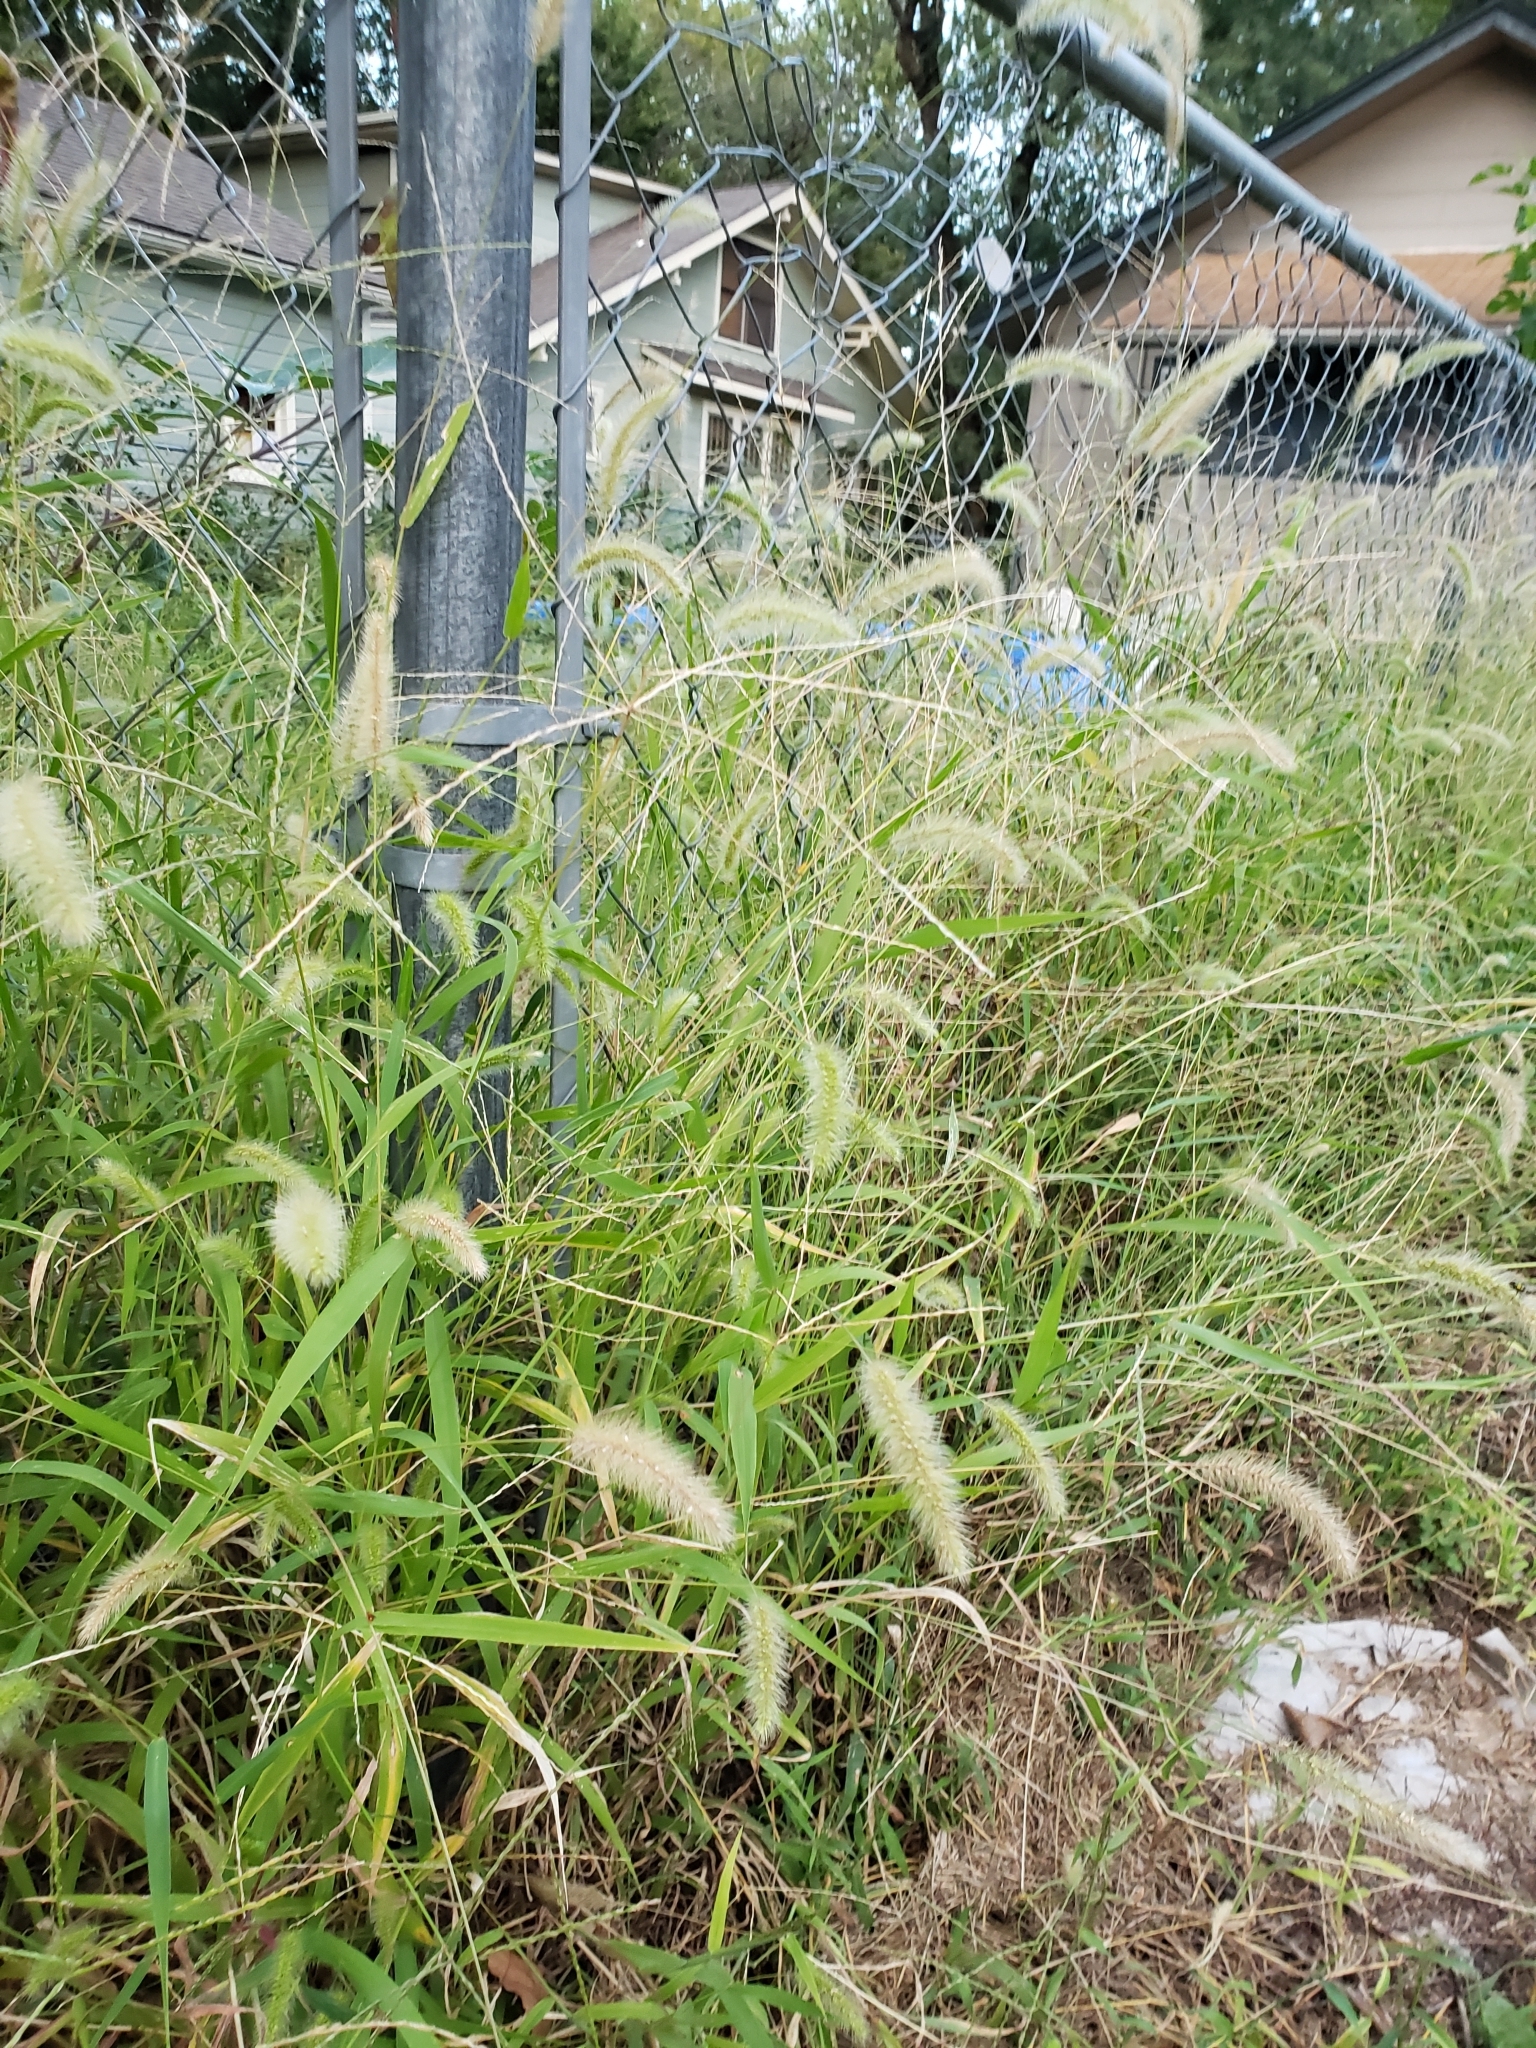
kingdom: Plantae
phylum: Tracheophyta
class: Liliopsida
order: Poales
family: Poaceae
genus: Setaria
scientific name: Setaria faberi
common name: Nodding bristle-grass
